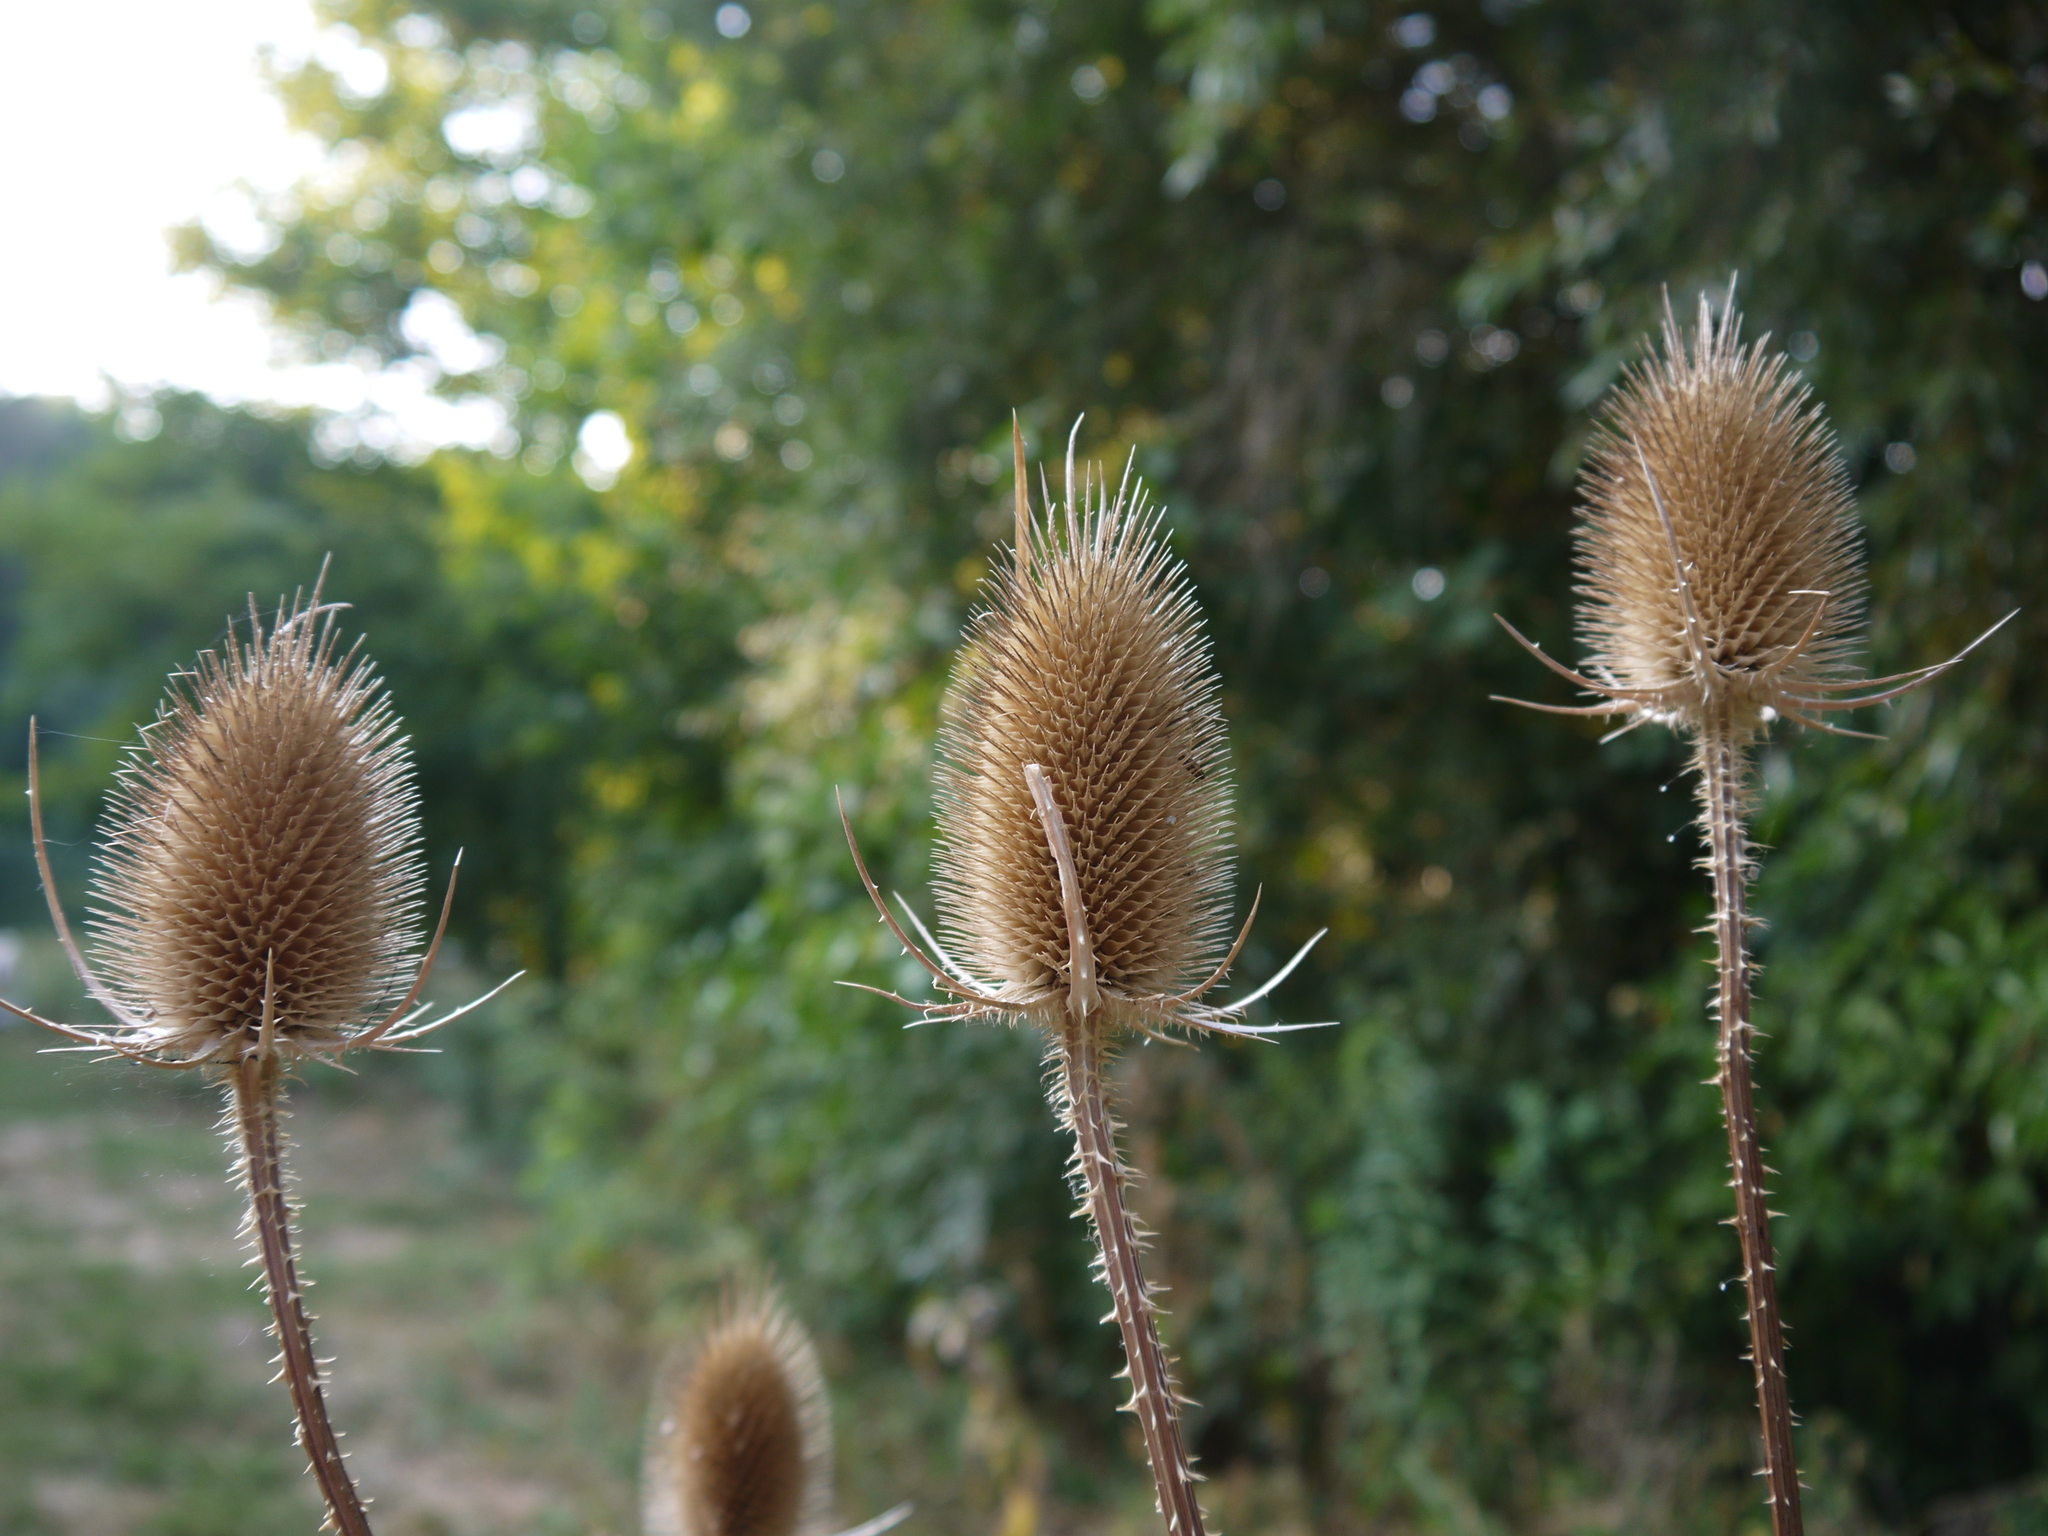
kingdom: Plantae
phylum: Tracheophyta
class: Magnoliopsida
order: Dipsacales
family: Caprifoliaceae
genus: Dipsacus
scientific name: Dipsacus fullonum
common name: Teasel
